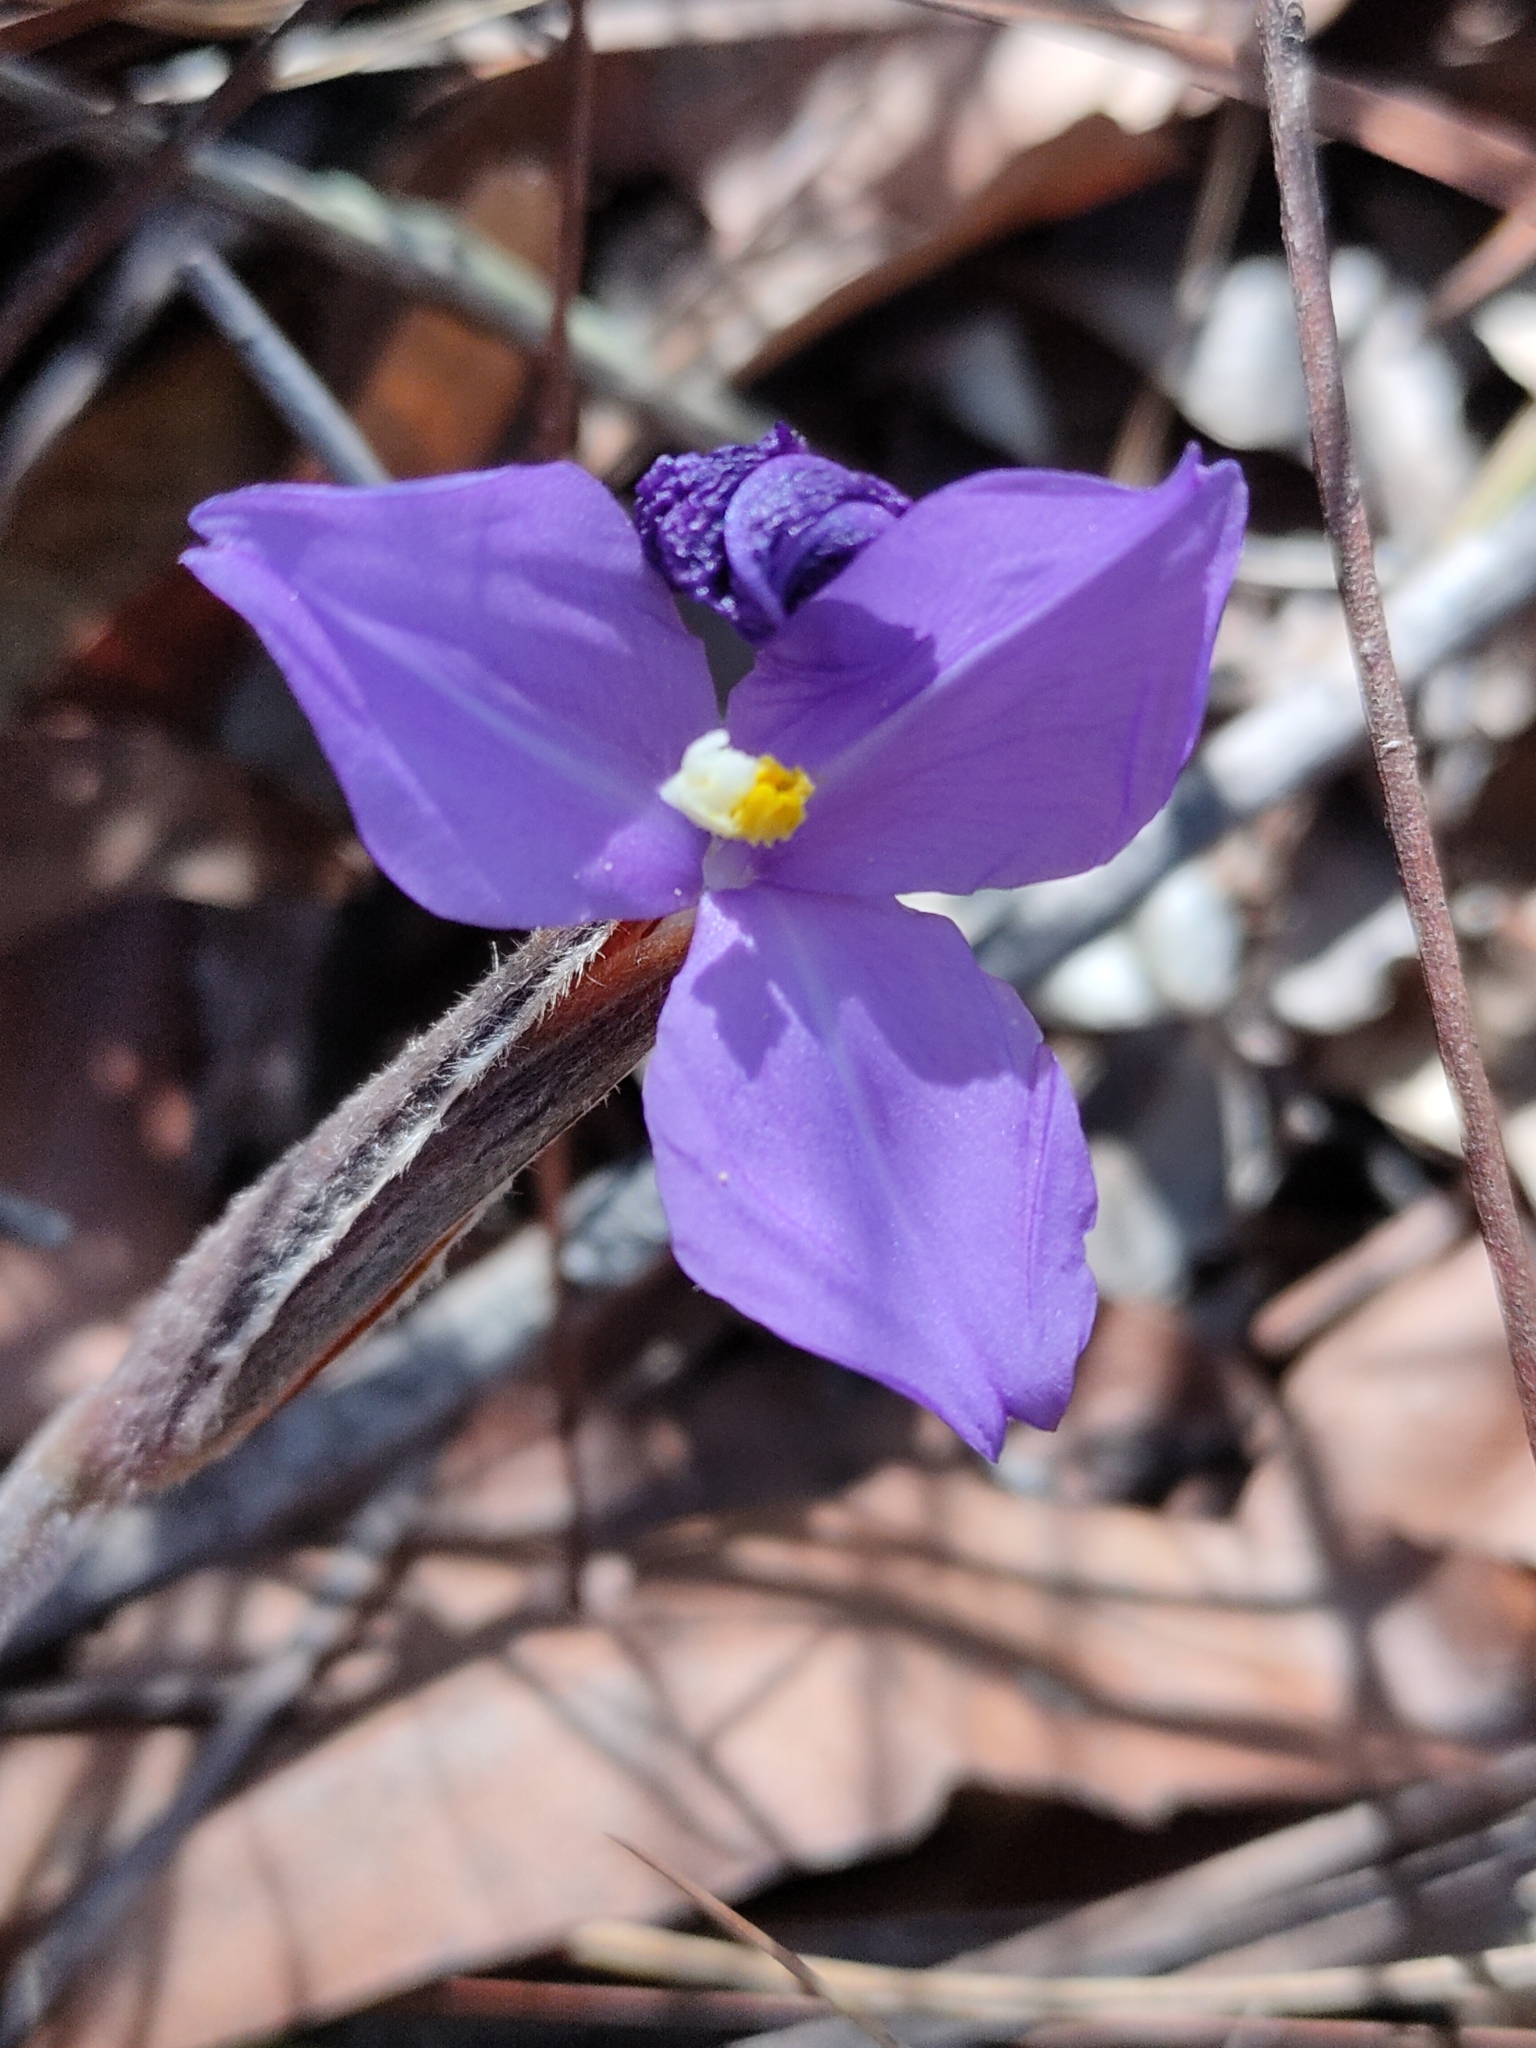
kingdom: Plantae
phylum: Tracheophyta
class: Liliopsida
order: Asparagales
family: Iridaceae
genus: Patersonia
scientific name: Patersonia sericea
